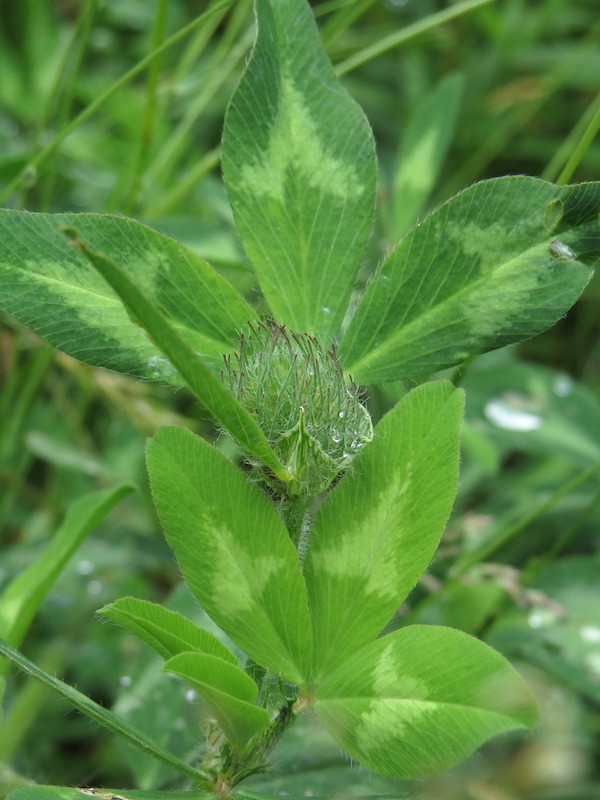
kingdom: Plantae
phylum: Tracheophyta
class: Magnoliopsida
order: Fabales
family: Fabaceae
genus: Trifolium
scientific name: Trifolium pratense
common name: Red clover
